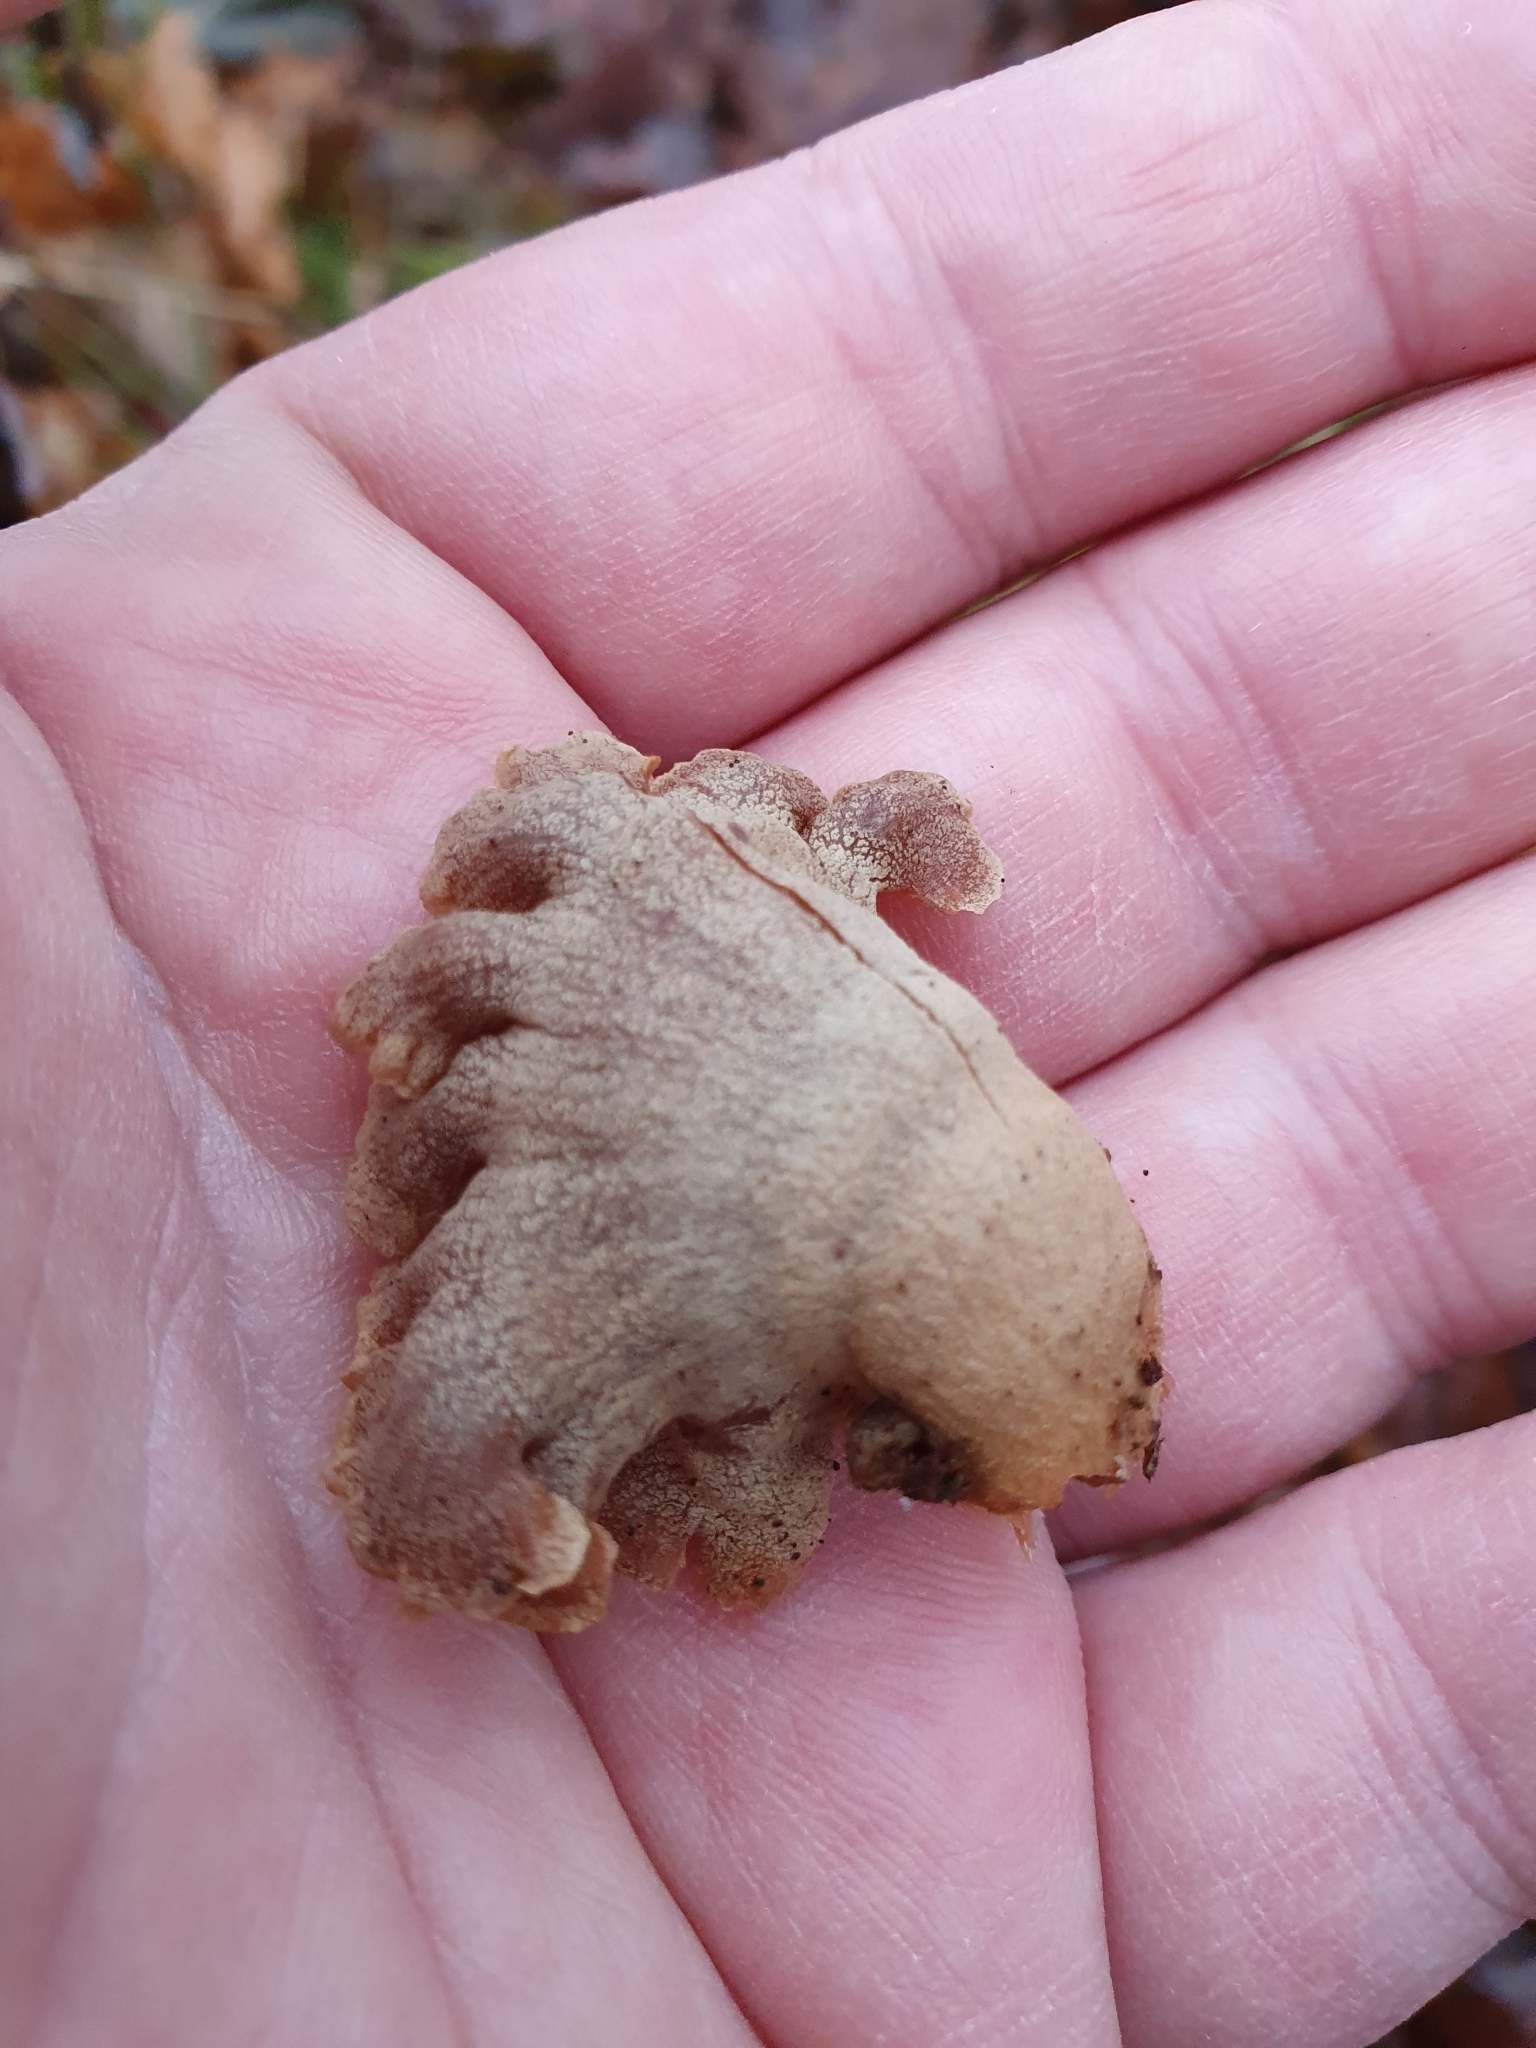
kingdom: Fungi
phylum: Basidiomycota
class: Agaricomycetes
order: Agaricales
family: Mycenaceae
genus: Panellus
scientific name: Panellus stipticus
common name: Bitter oysterling
